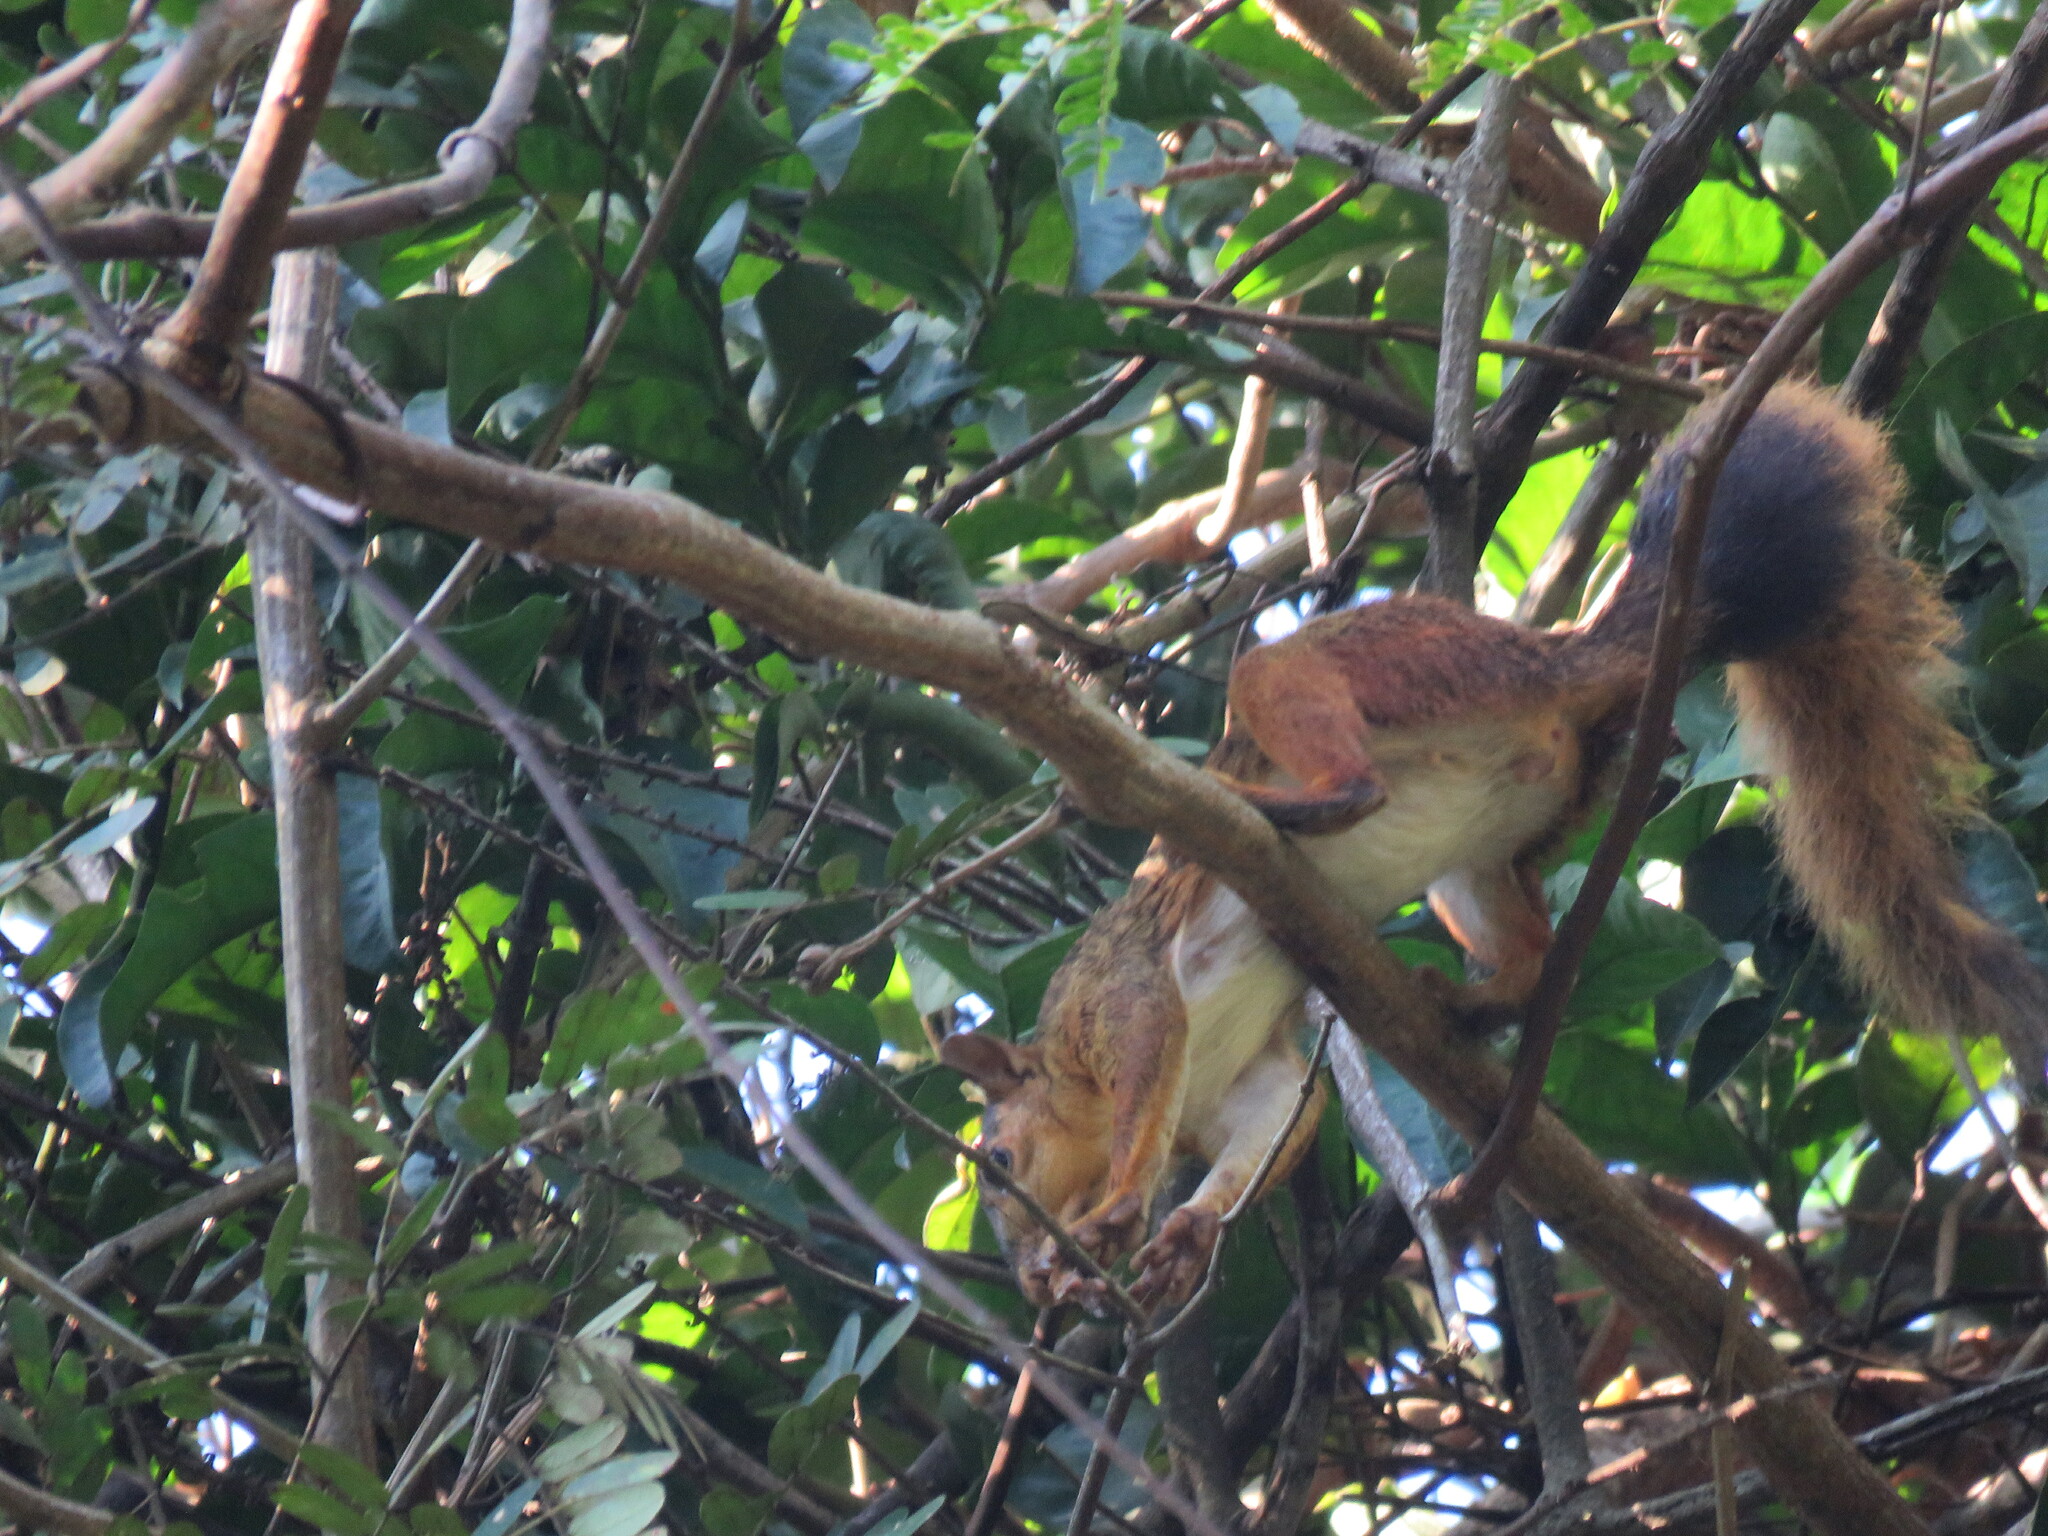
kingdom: Animalia
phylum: Chordata
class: Mammalia
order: Rodentia
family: Sciuridae
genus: Sciurus
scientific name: Sciurus spadiceus
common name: Southern amazon red squirrel
